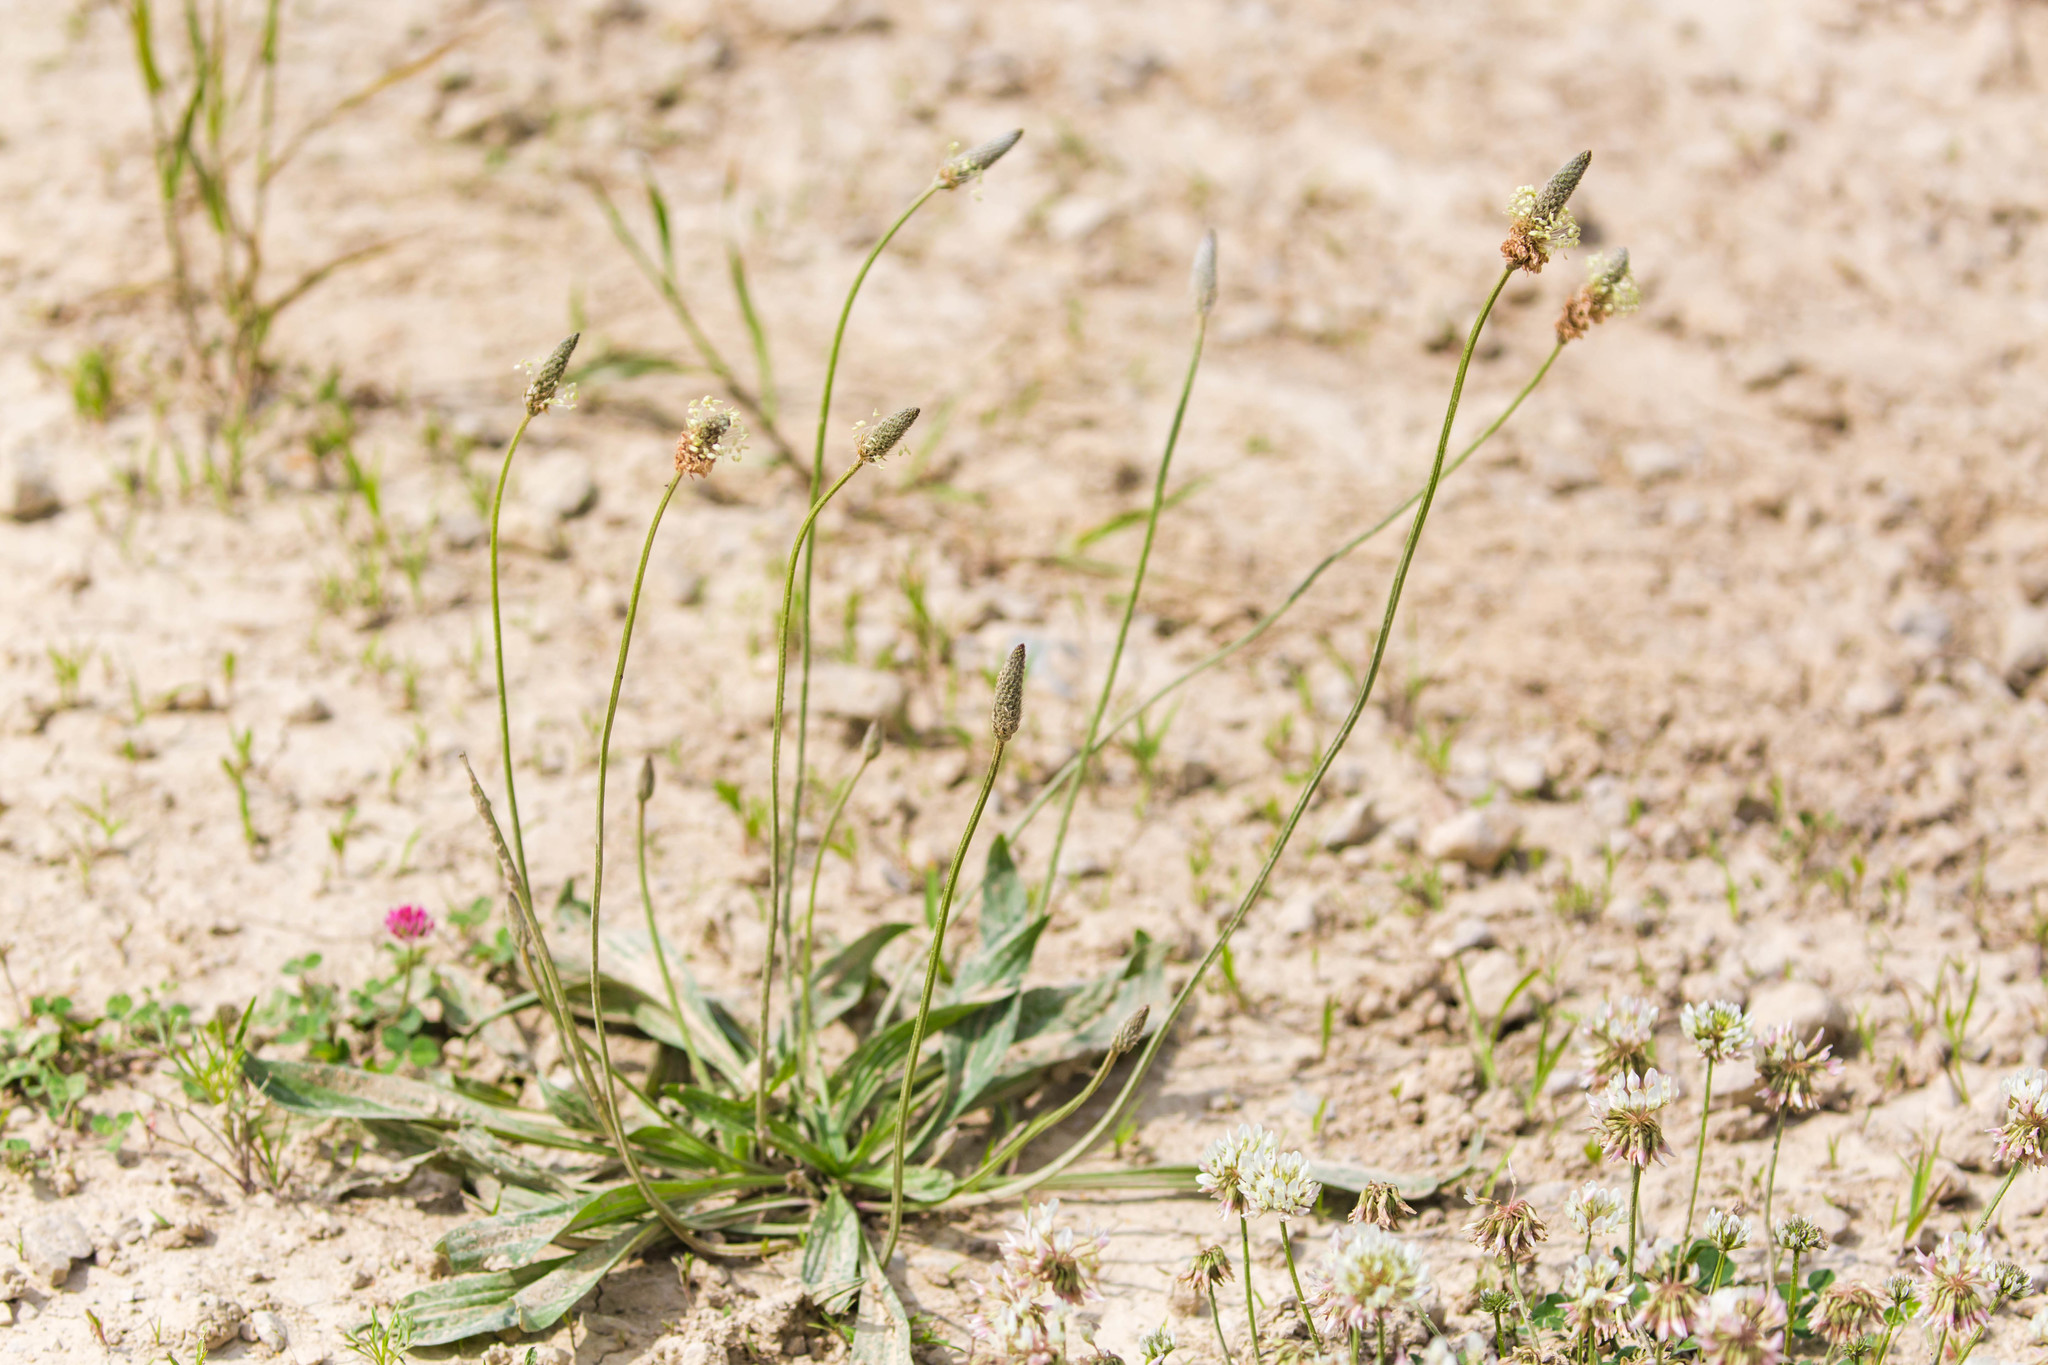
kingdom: Plantae
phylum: Tracheophyta
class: Magnoliopsida
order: Lamiales
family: Plantaginaceae
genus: Plantago
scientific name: Plantago lanceolata
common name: Ribwort plantain
